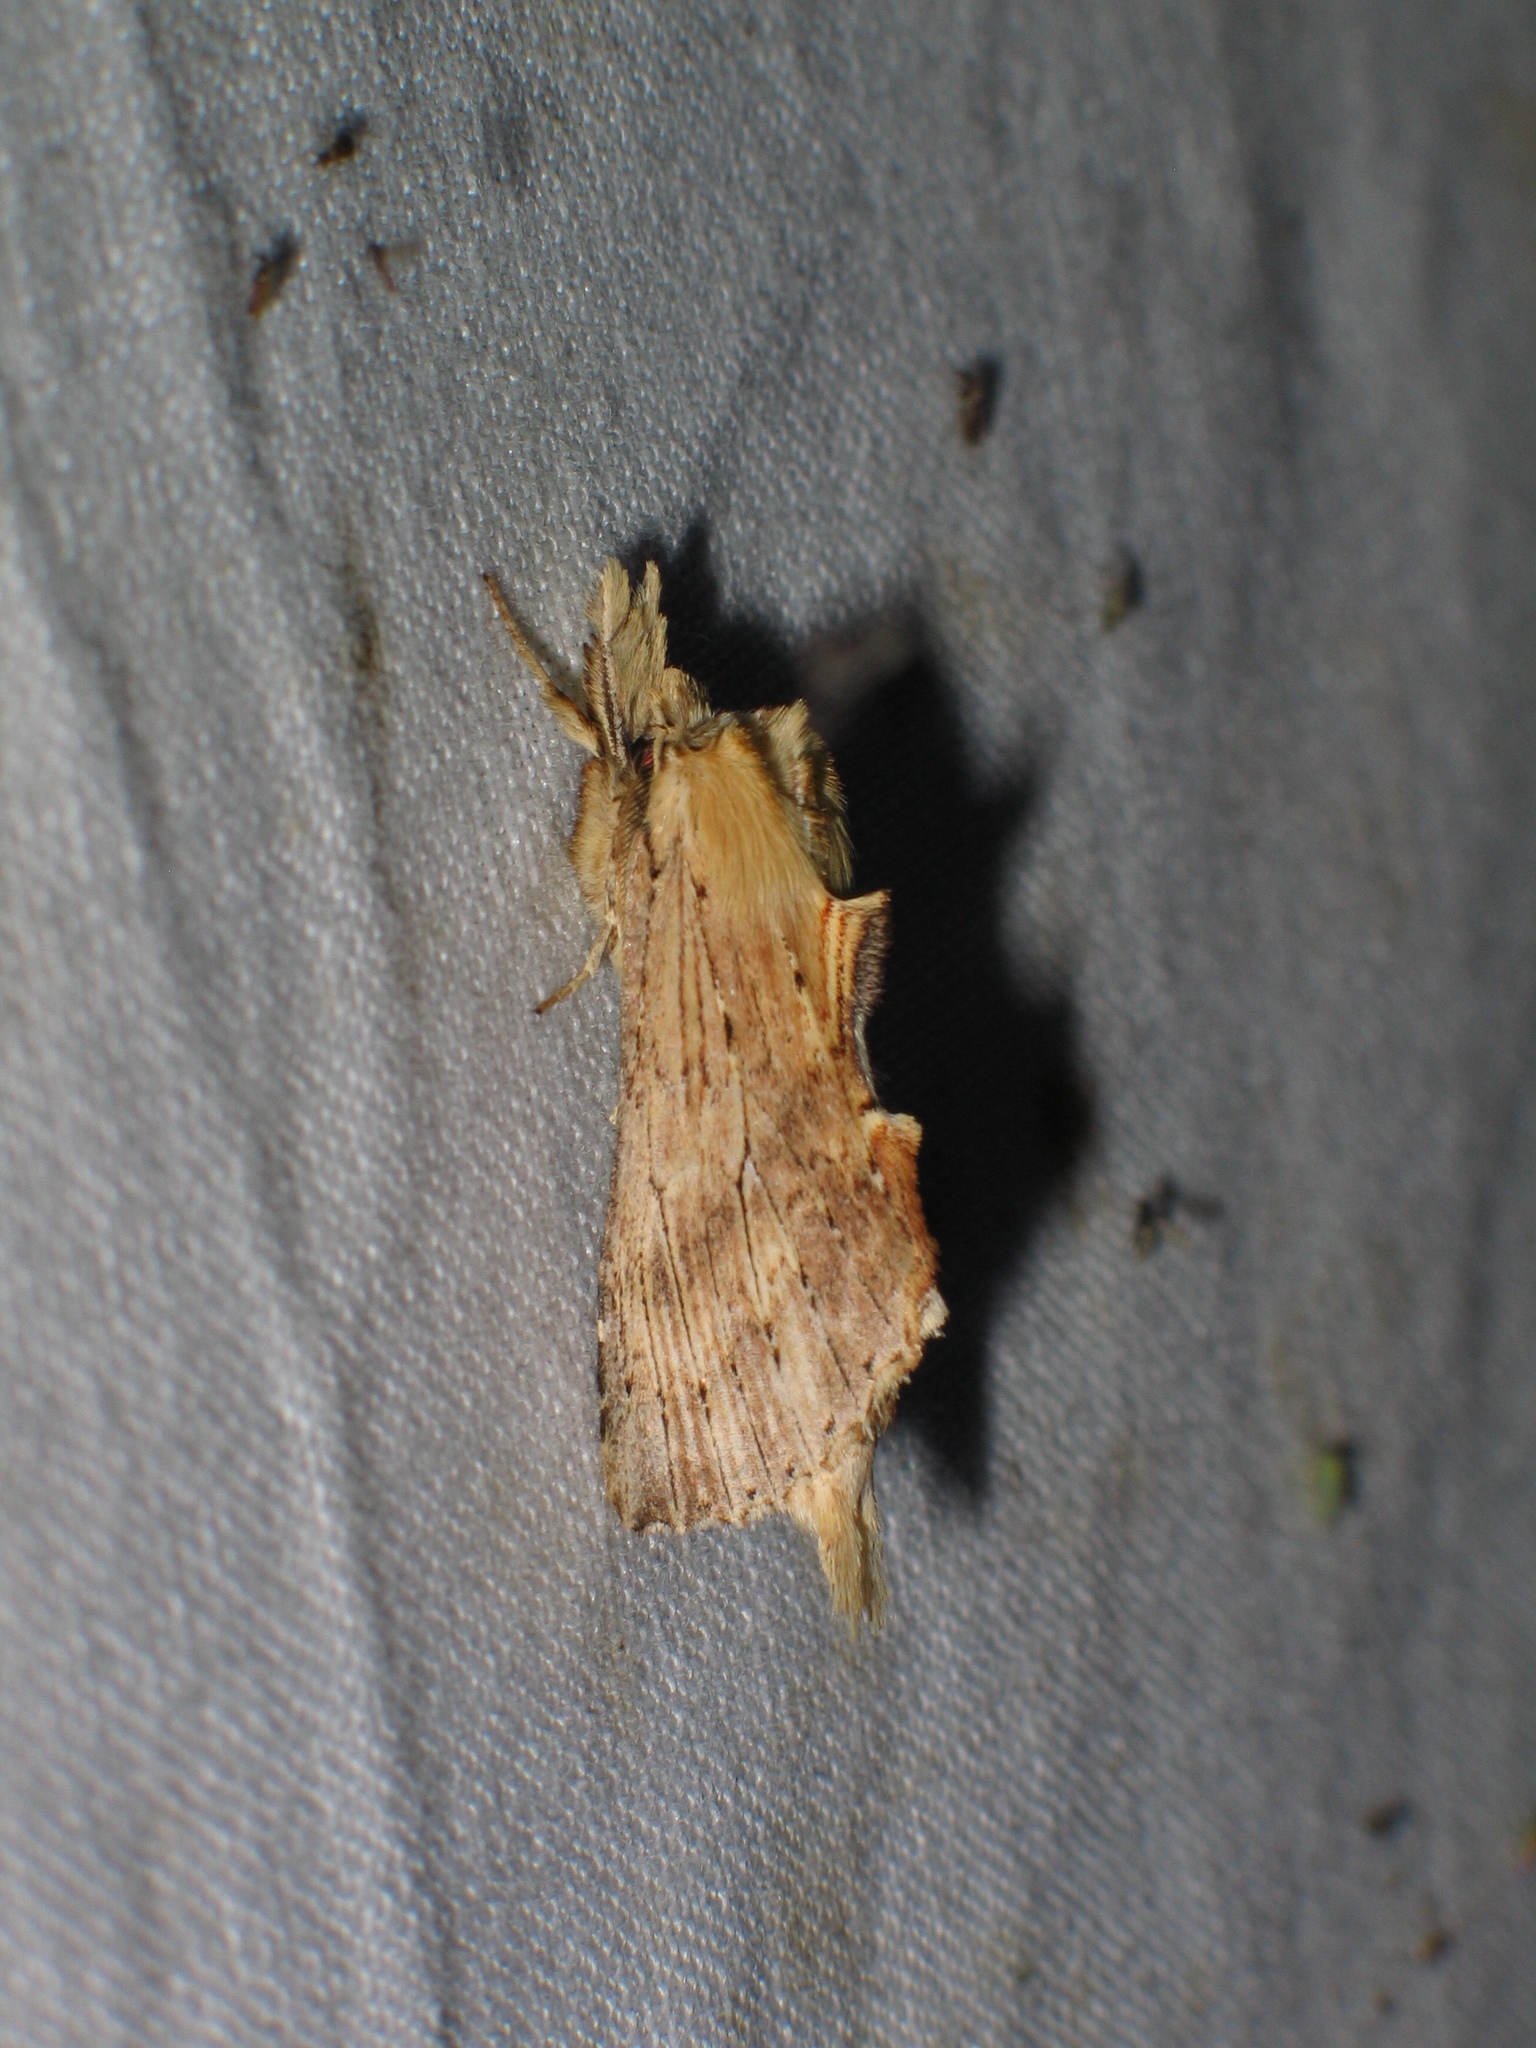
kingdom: Animalia
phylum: Arthropoda
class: Insecta
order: Lepidoptera
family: Notodontidae
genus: Pterostoma
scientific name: Pterostoma palpina
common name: Pale prominent
